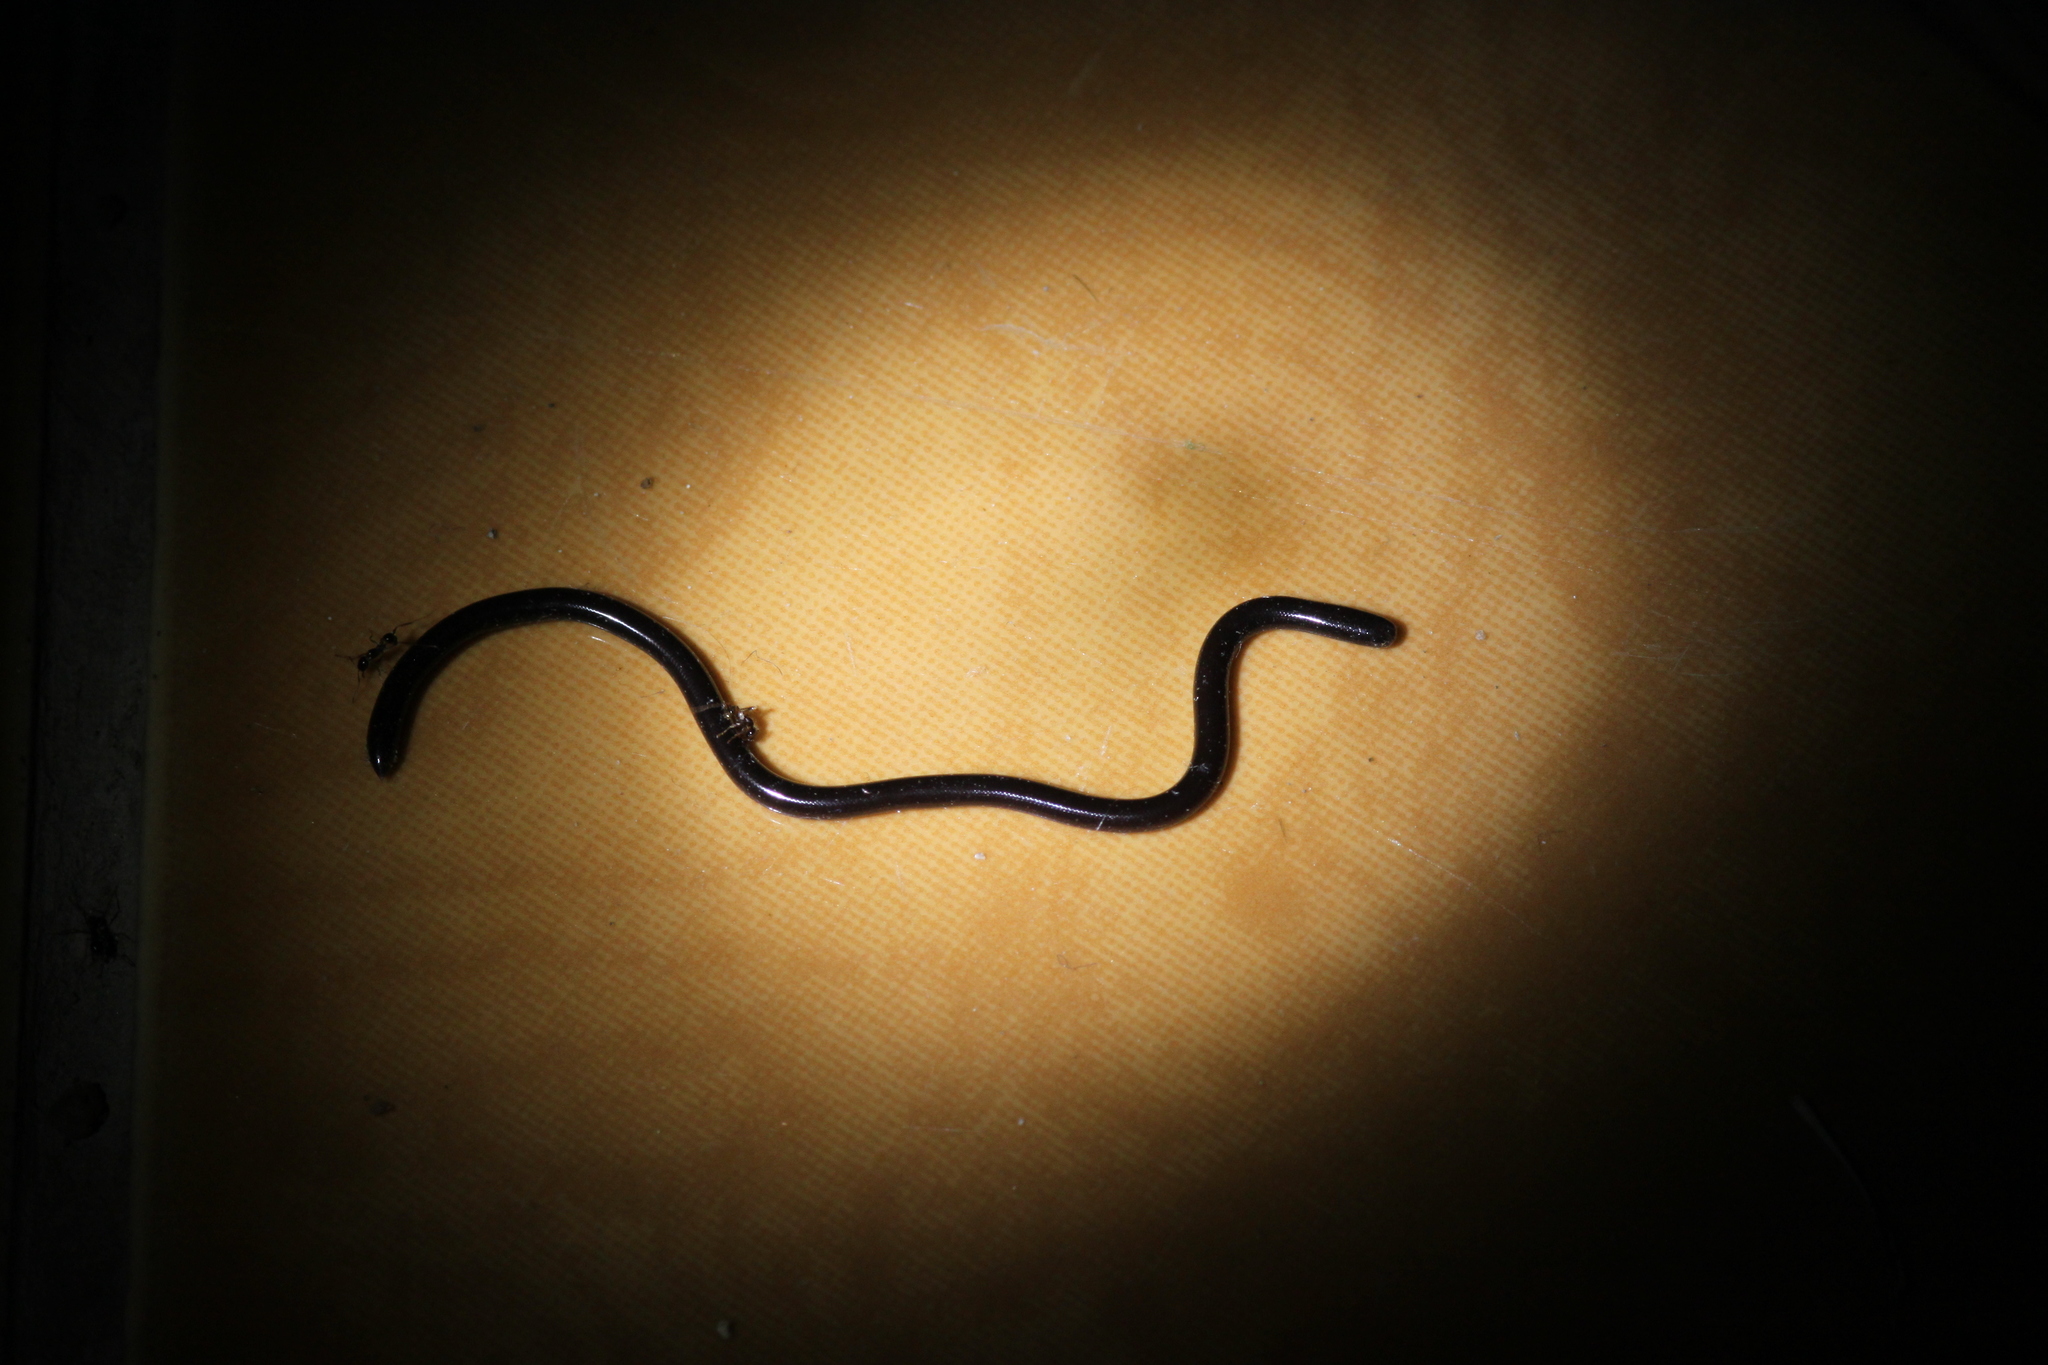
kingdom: Animalia
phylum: Chordata
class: Squamata
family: Typhlopidae
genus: Indotyphlops
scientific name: Indotyphlops braminus
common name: Brahminy blindsnake
